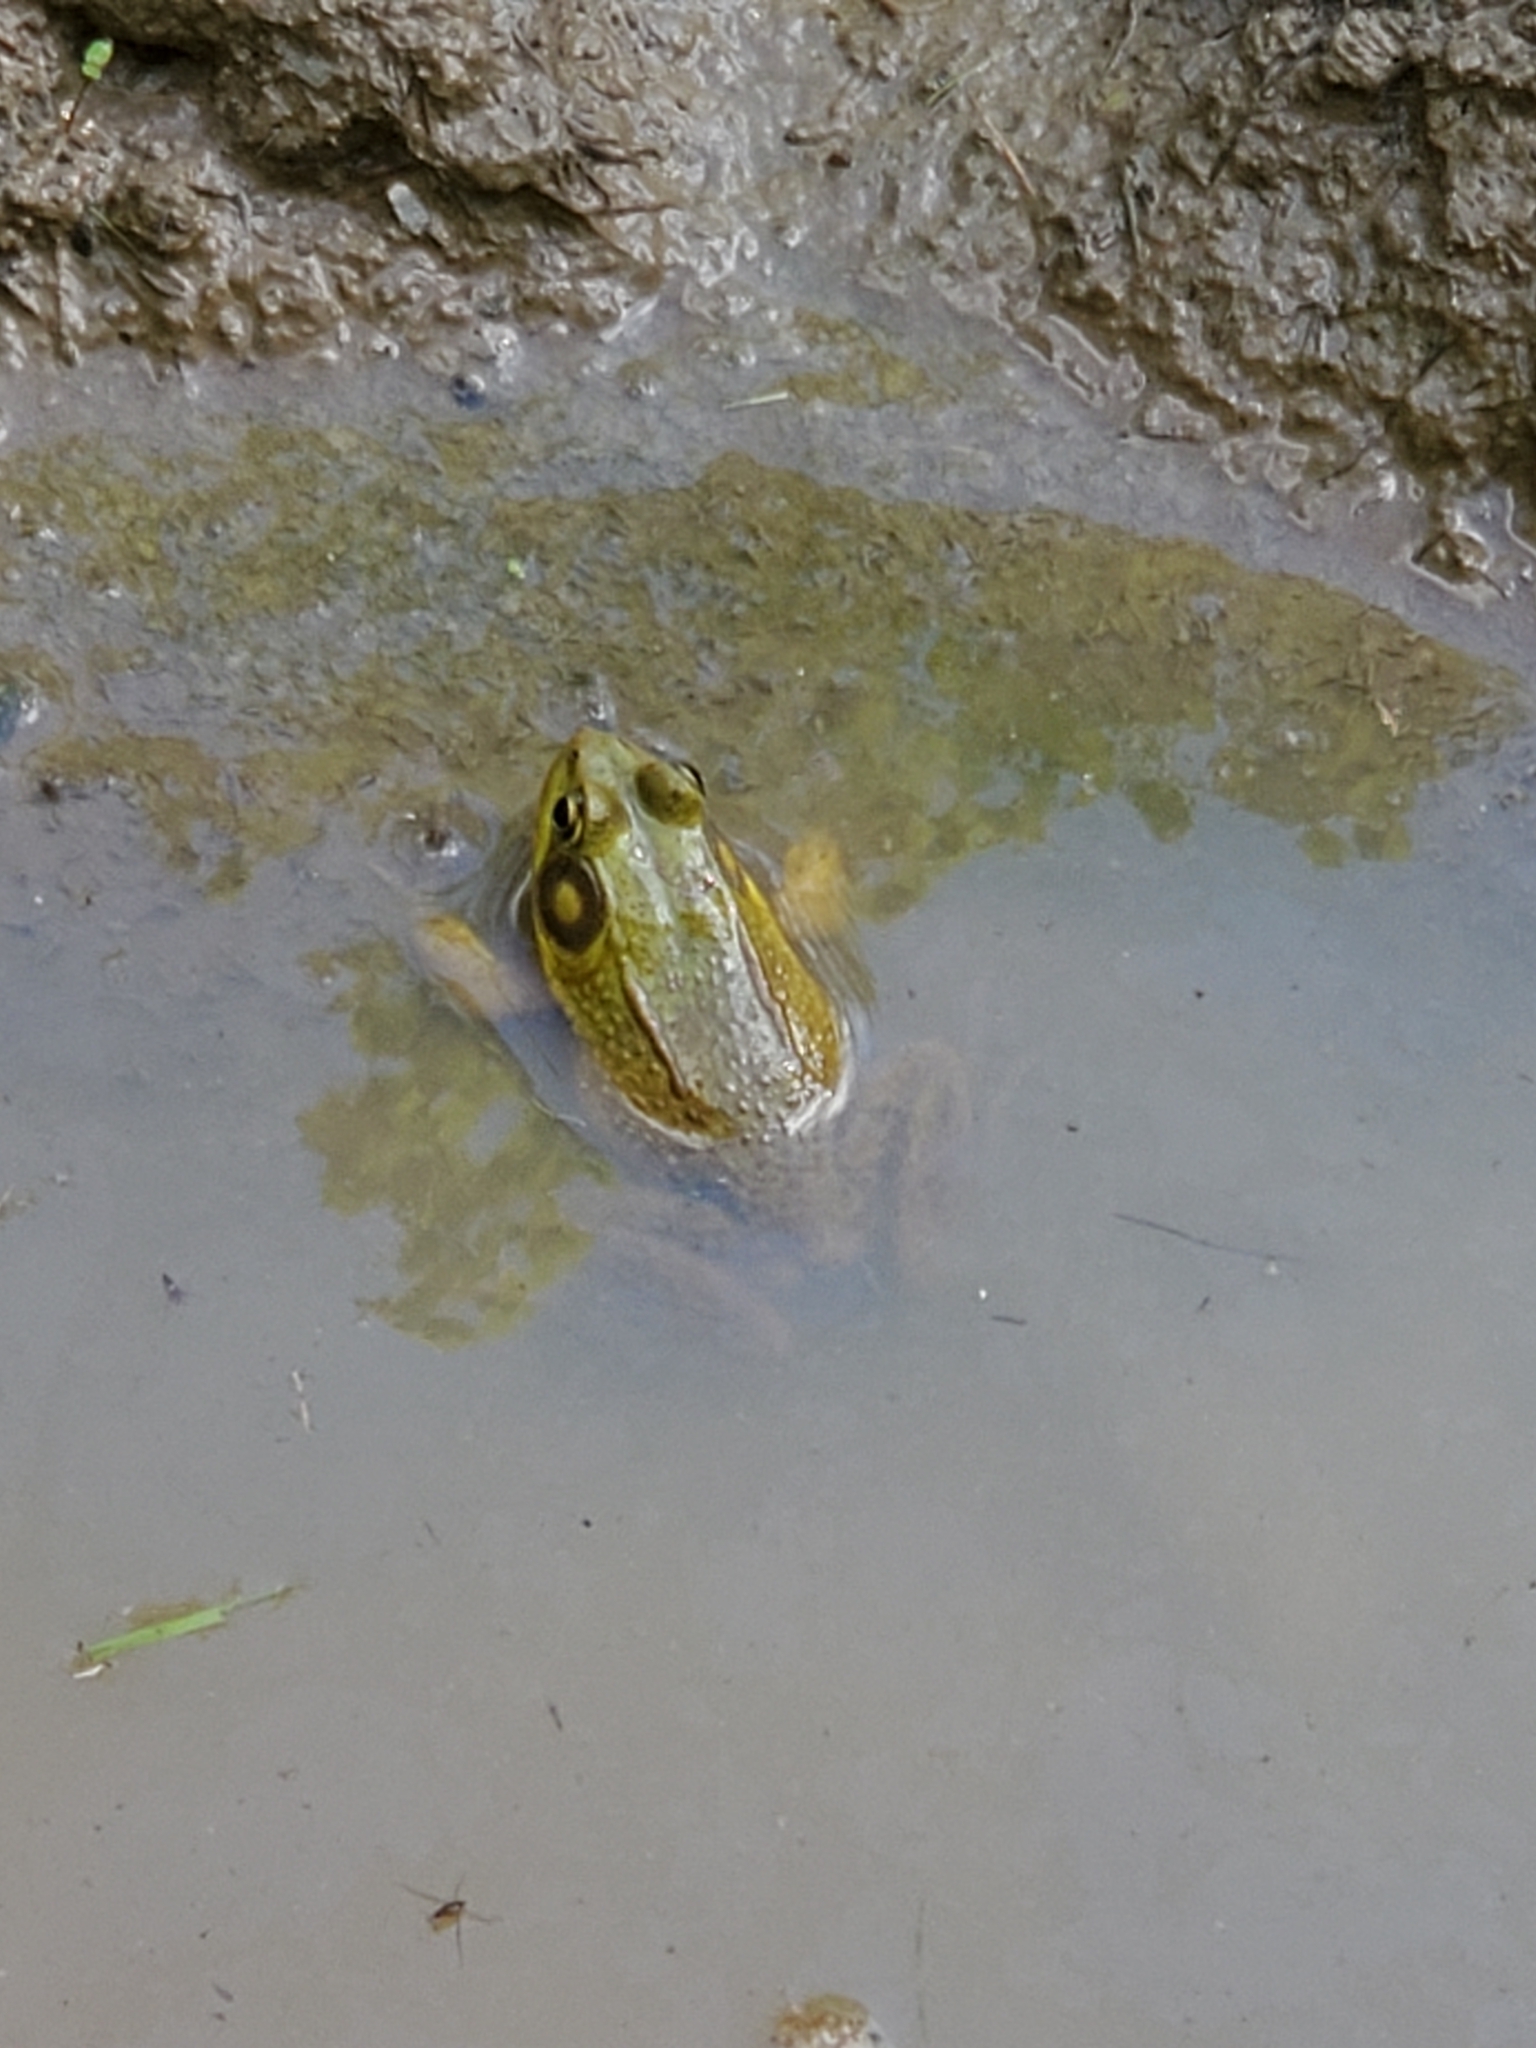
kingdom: Animalia
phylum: Chordata
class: Amphibia
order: Anura
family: Ranidae
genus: Lithobates
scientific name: Lithobates clamitans
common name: Green frog
